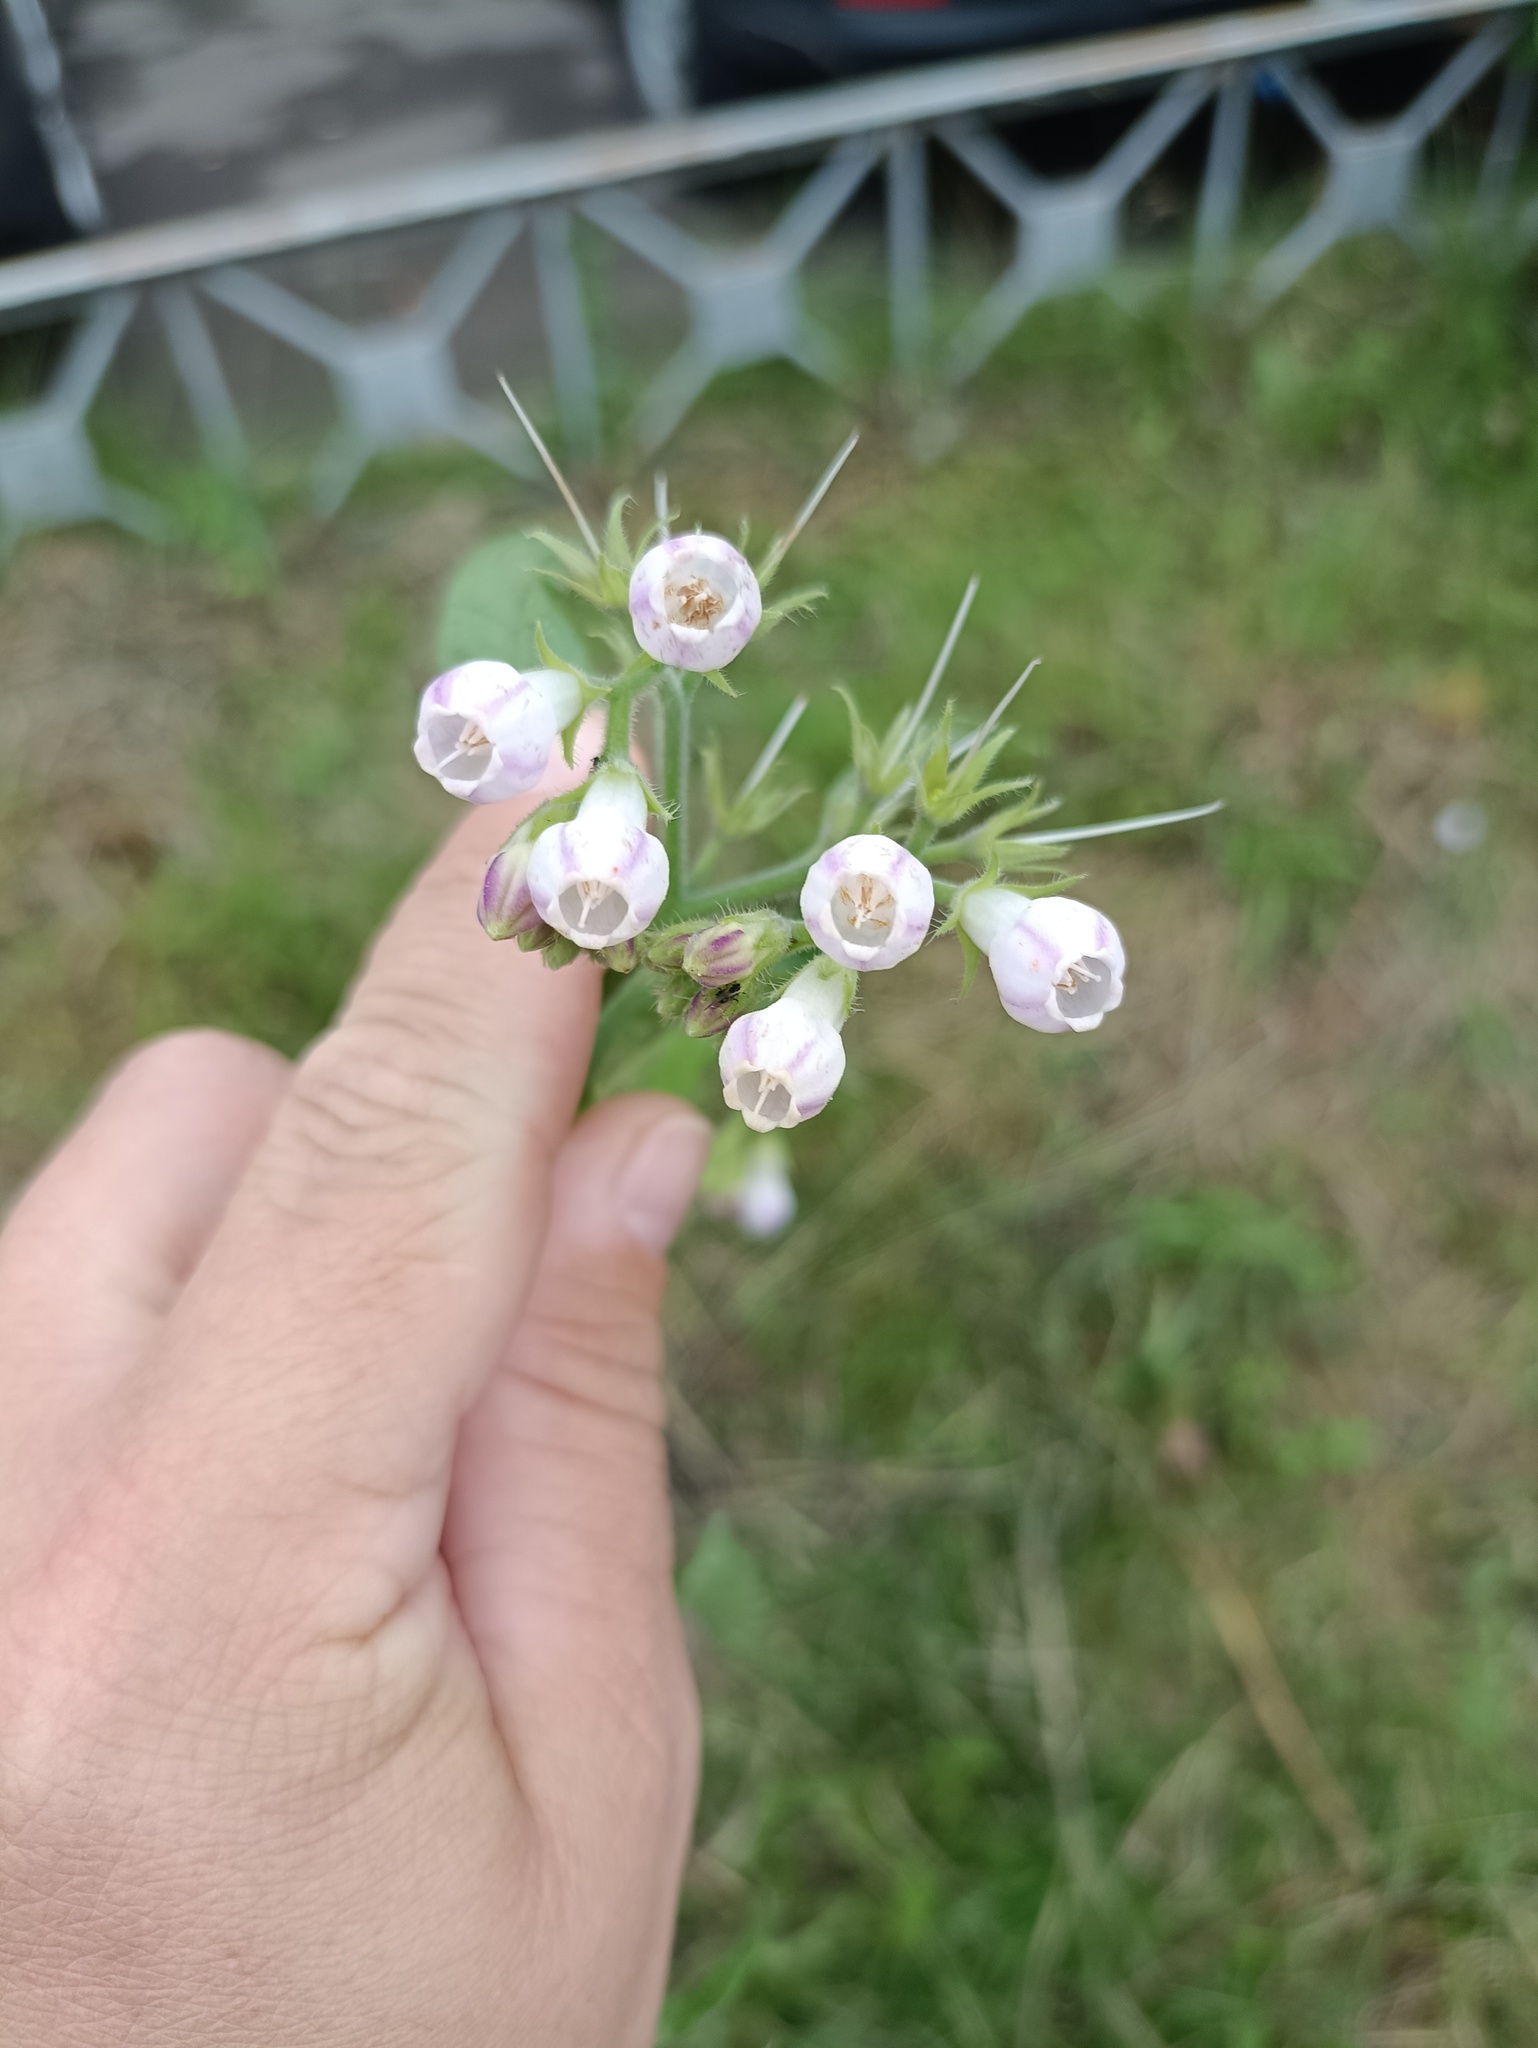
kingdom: Plantae
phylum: Tracheophyta
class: Magnoliopsida
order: Boraginales
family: Boraginaceae
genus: Symphytum
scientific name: Symphytum officinale
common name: Common comfrey
